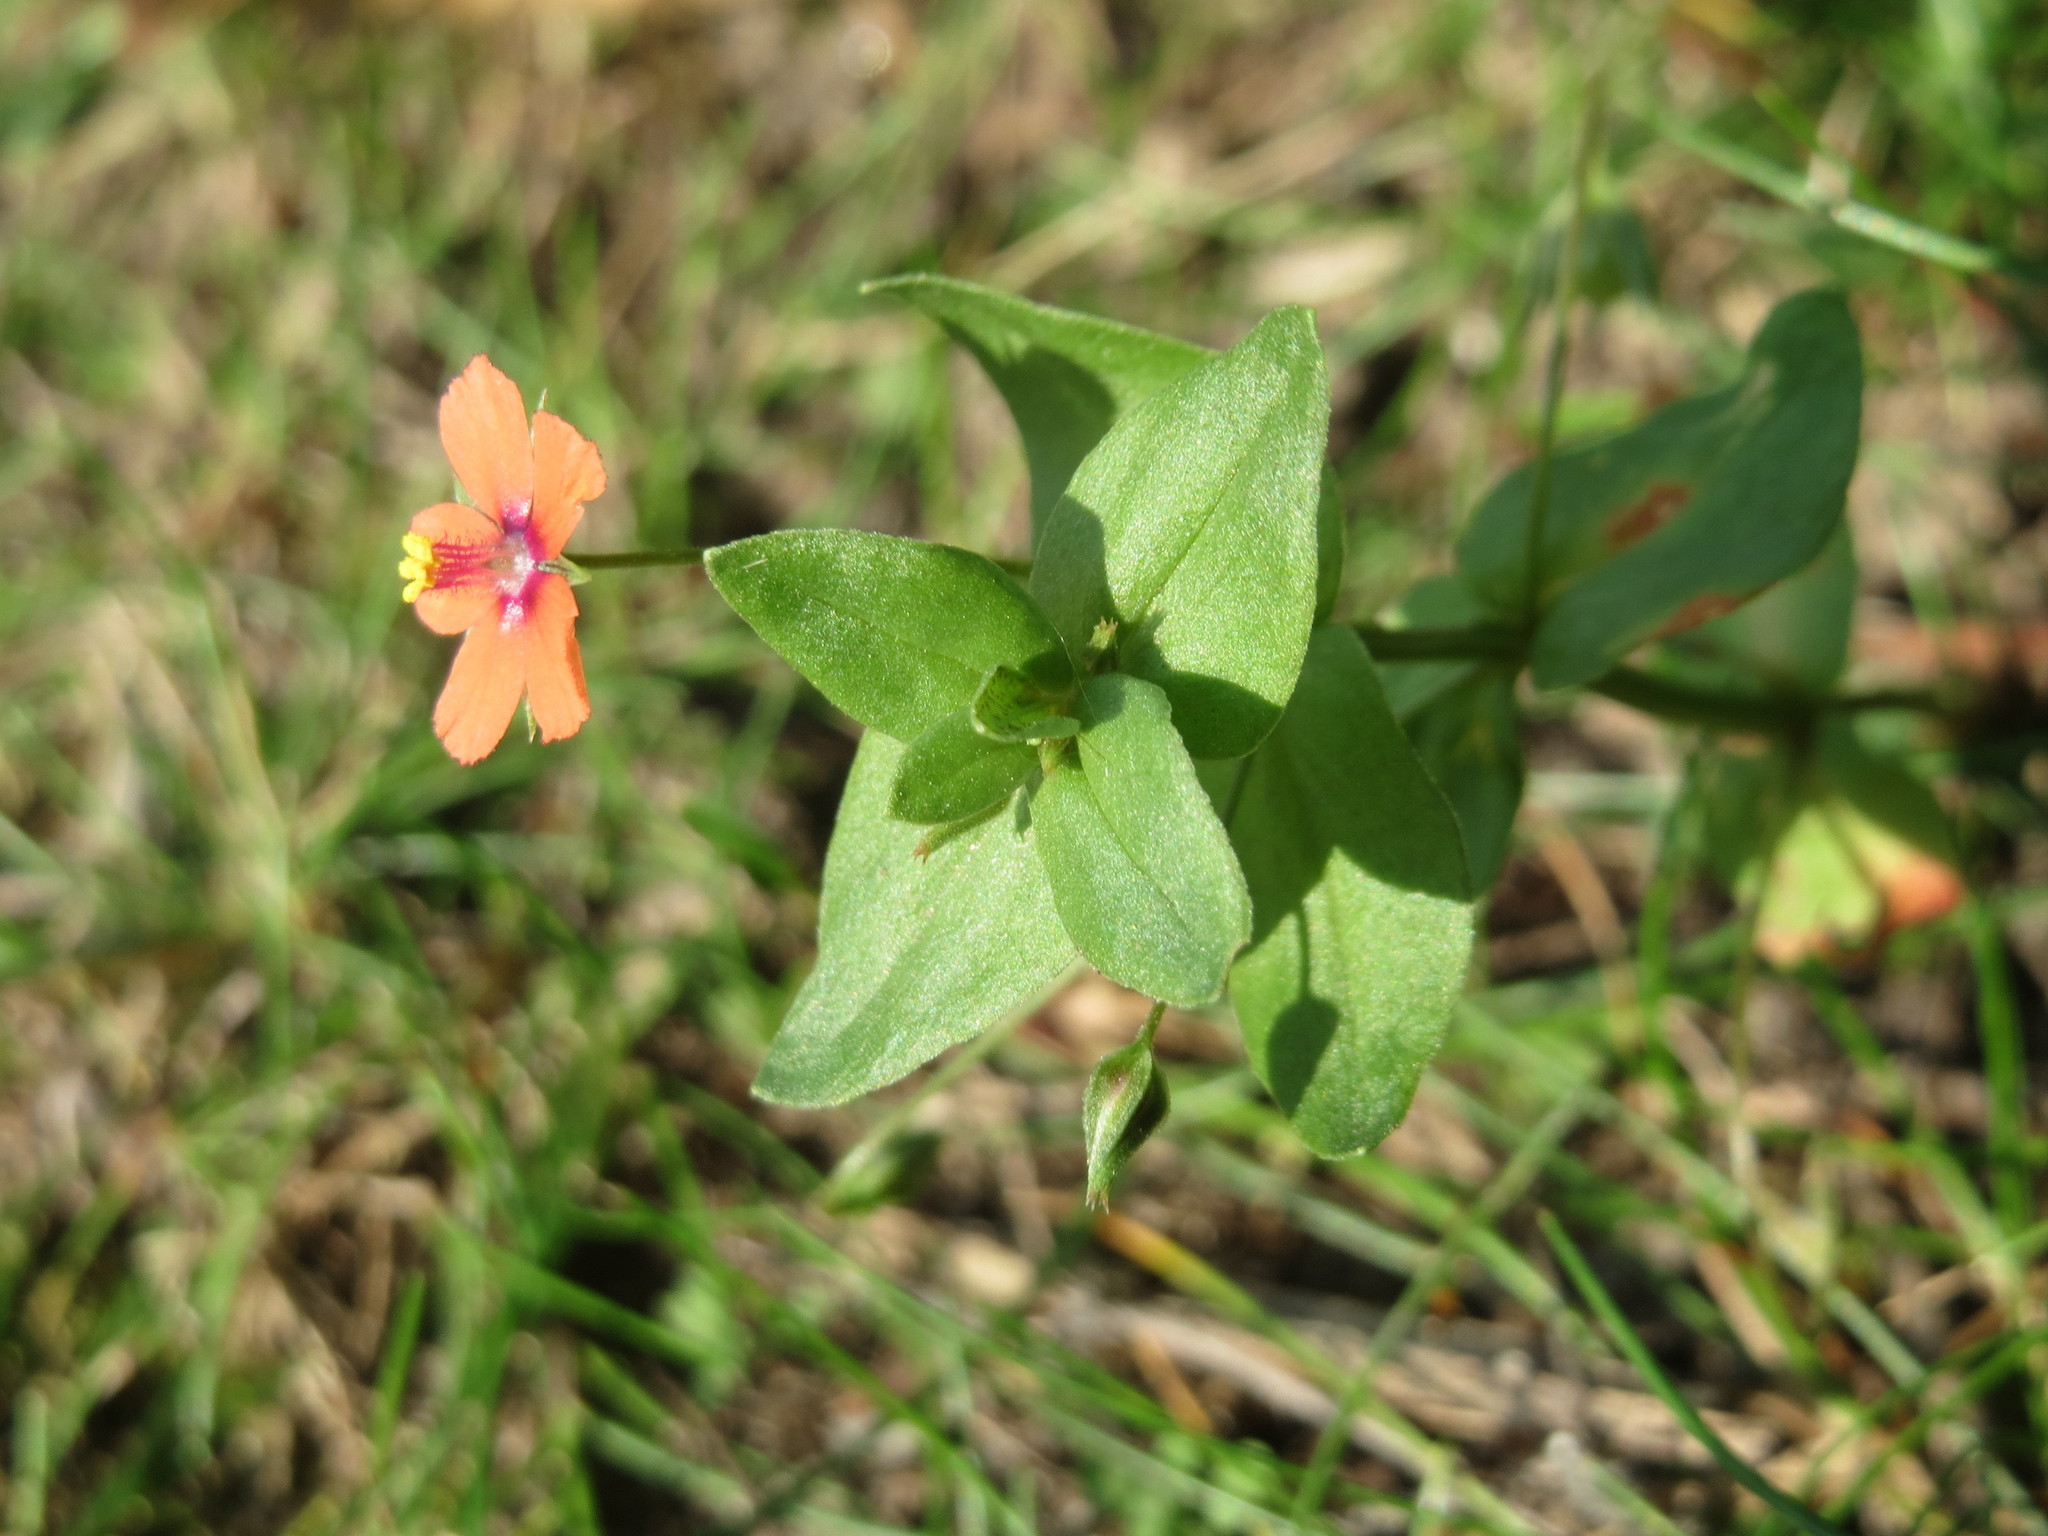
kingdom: Plantae
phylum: Tracheophyta
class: Magnoliopsida
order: Ericales
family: Primulaceae
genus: Lysimachia
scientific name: Lysimachia arvensis
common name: Scarlet pimpernel
